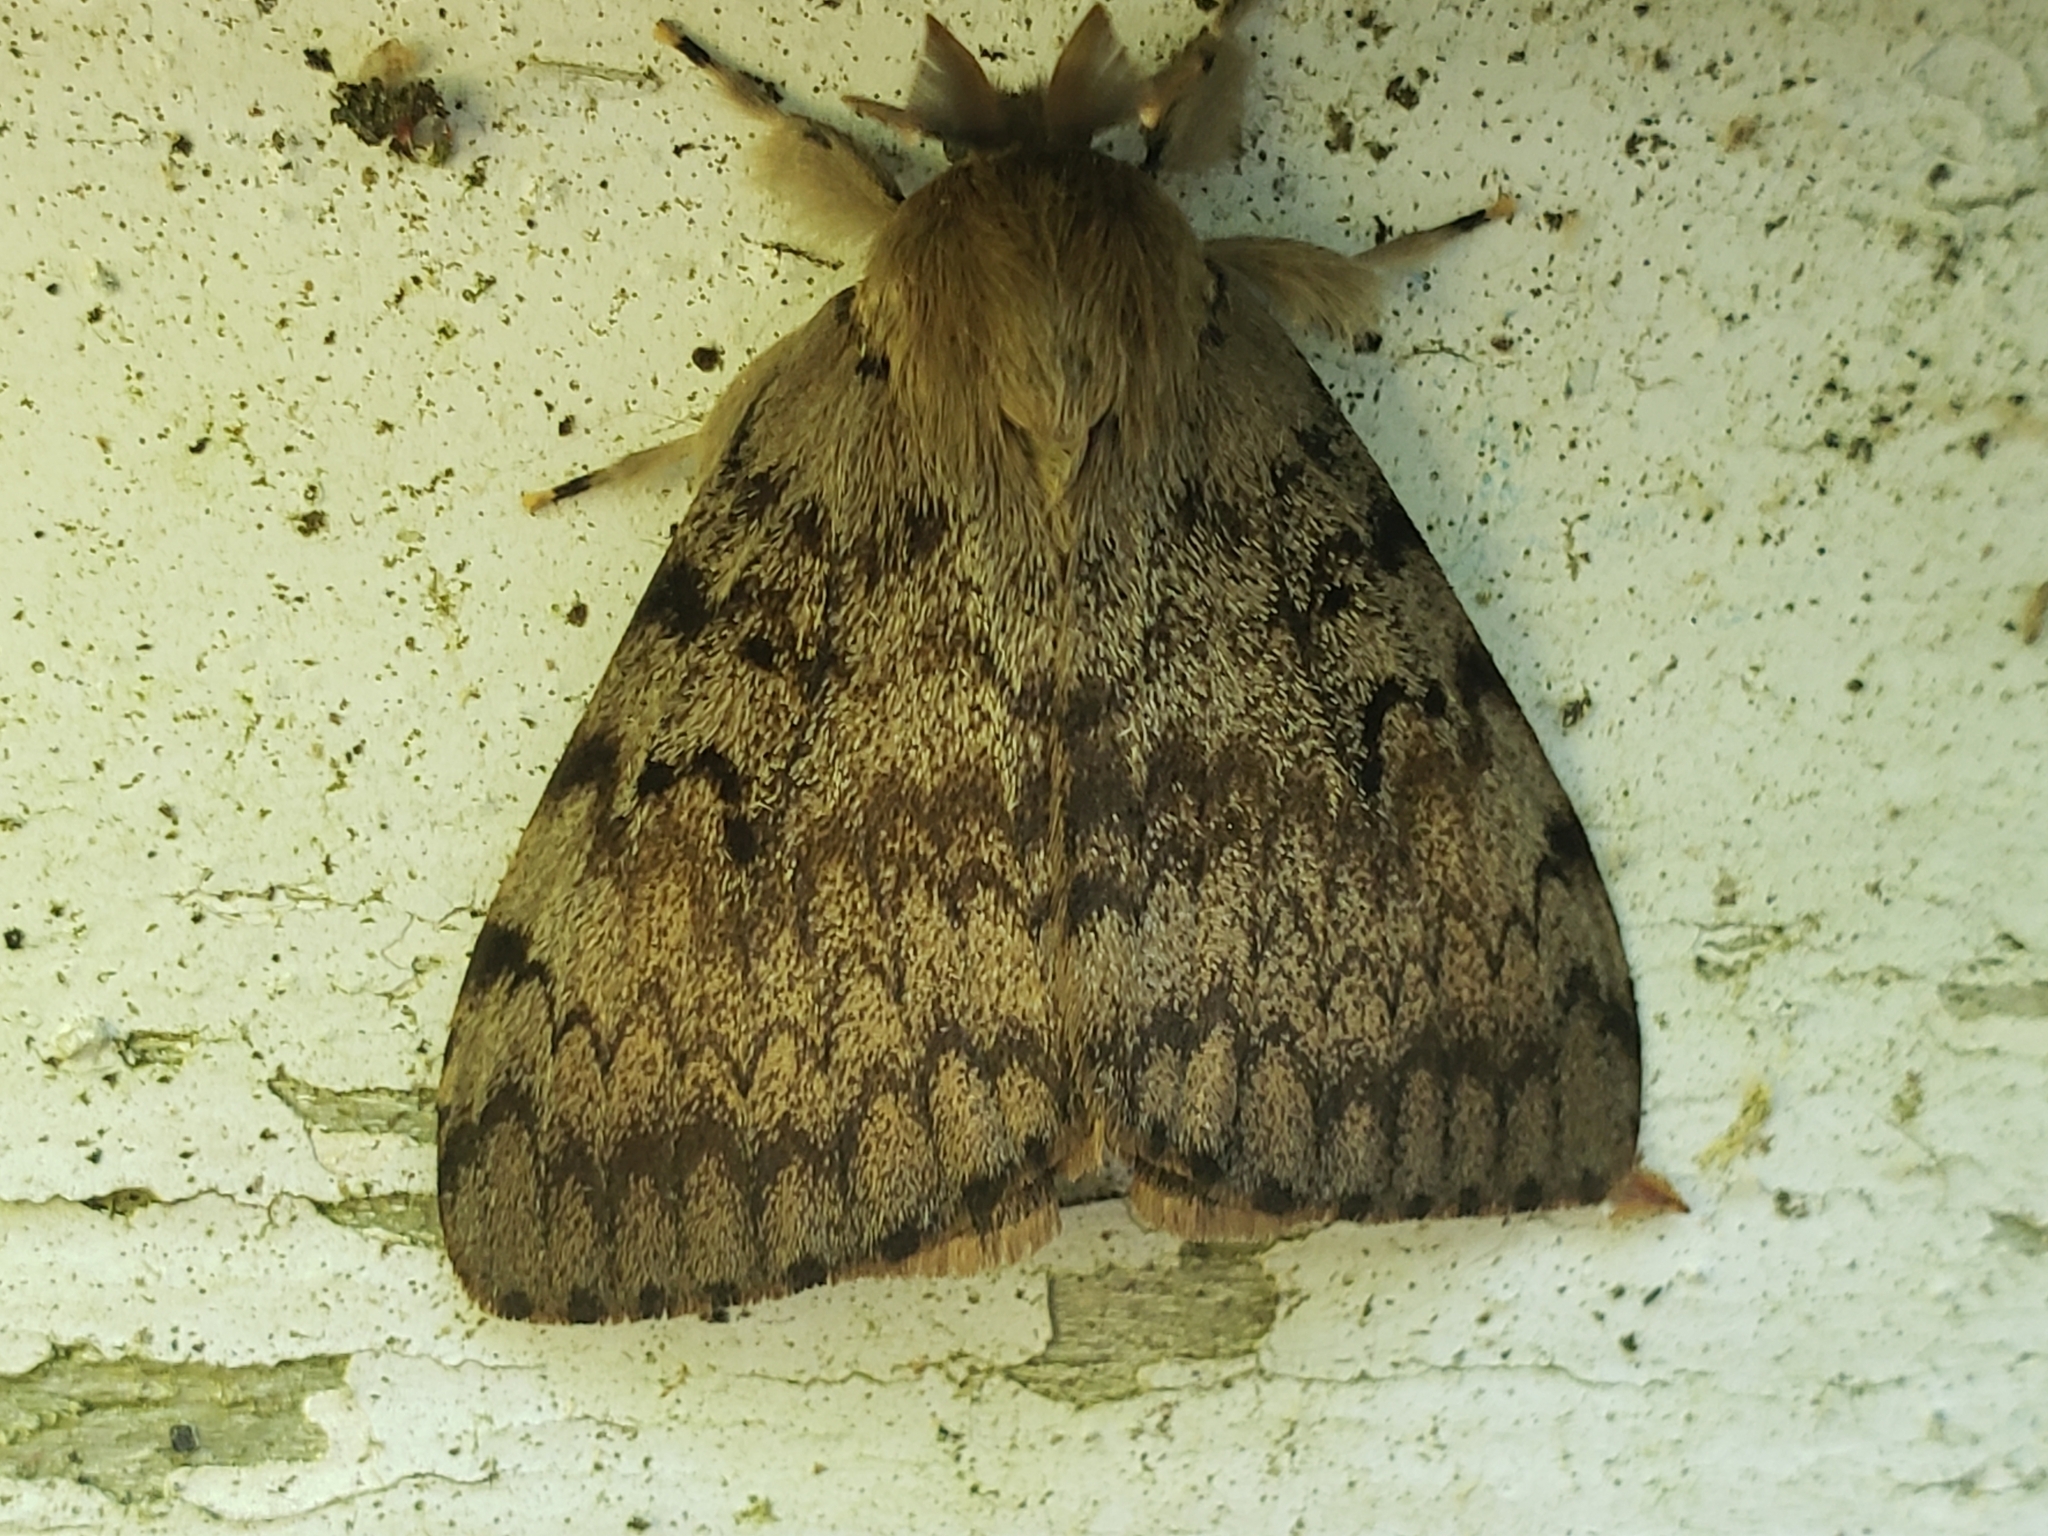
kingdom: Animalia
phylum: Arthropoda
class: Insecta
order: Lepidoptera
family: Erebidae
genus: Lymantria
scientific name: Lymantria dispar
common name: Gypsy moth
